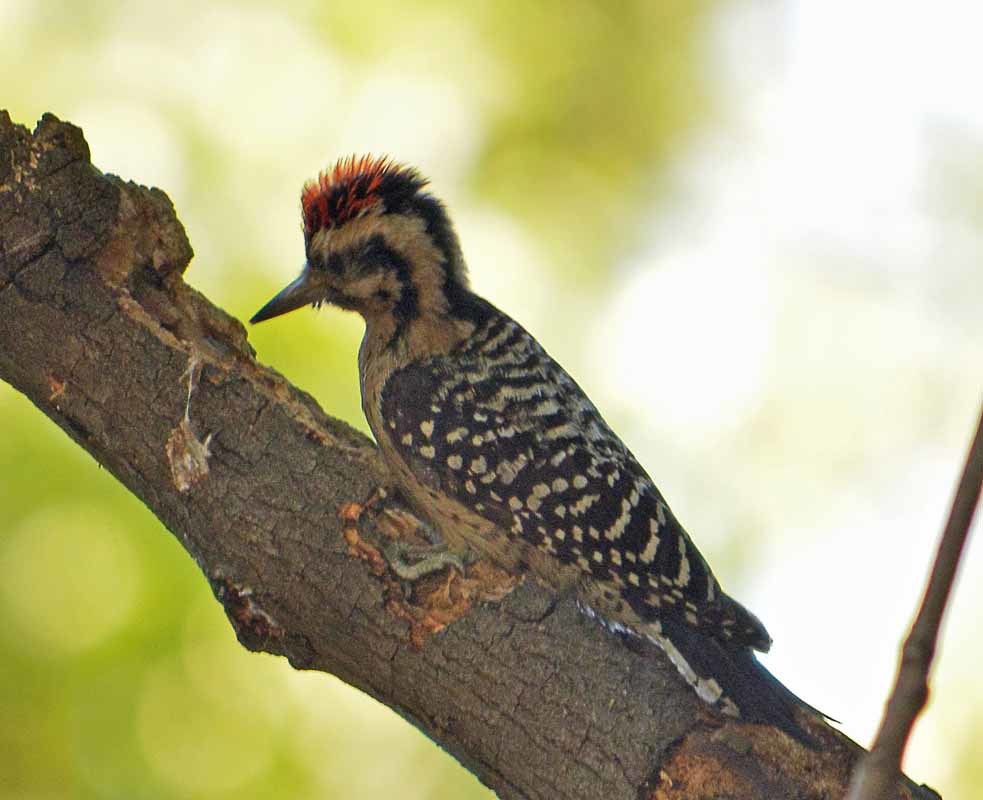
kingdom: Animalia
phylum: Chordata
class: Aves
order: Piciformes
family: Picidae
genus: Dryobates
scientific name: Dryobates scalaris
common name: Ladder-backed woodpecker
